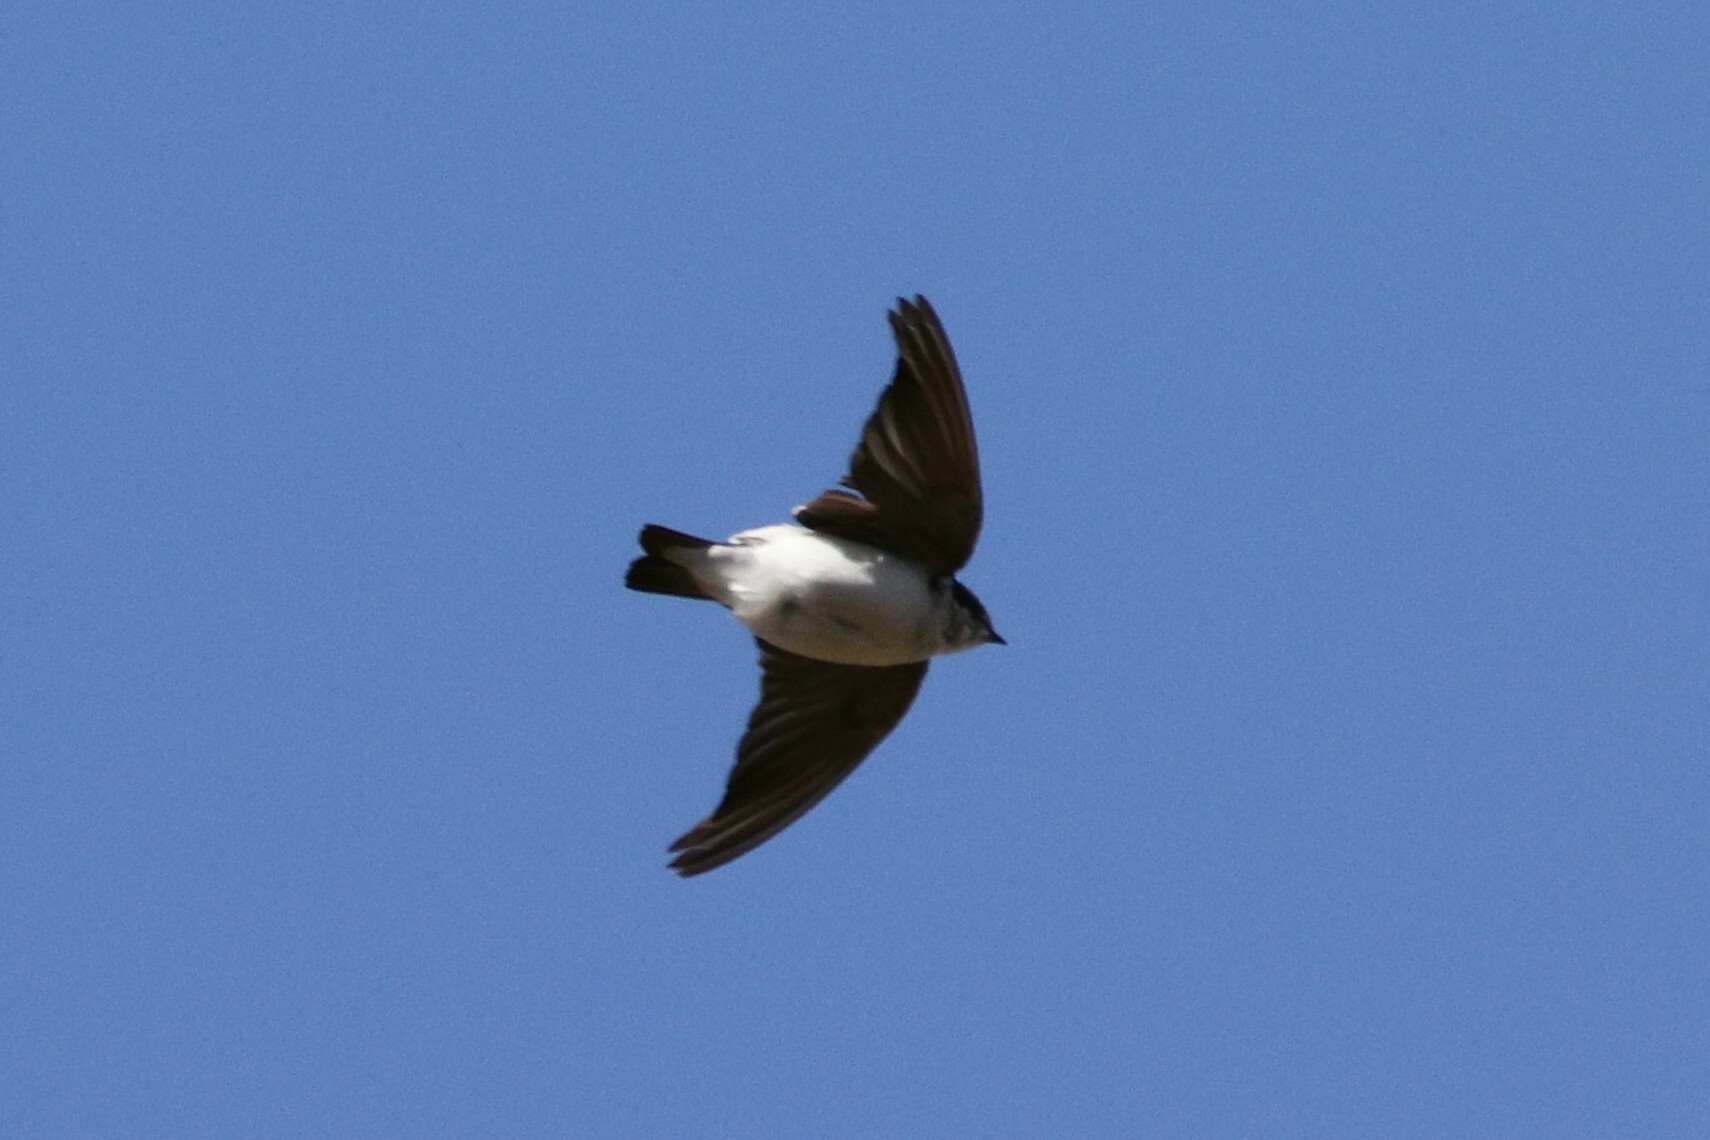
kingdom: Animalia
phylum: Chordata
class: Aves
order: Passeriformes
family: Hirundinidae
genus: Tachycineta
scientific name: Tachycineta leucopyga
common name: Chilean swallow
